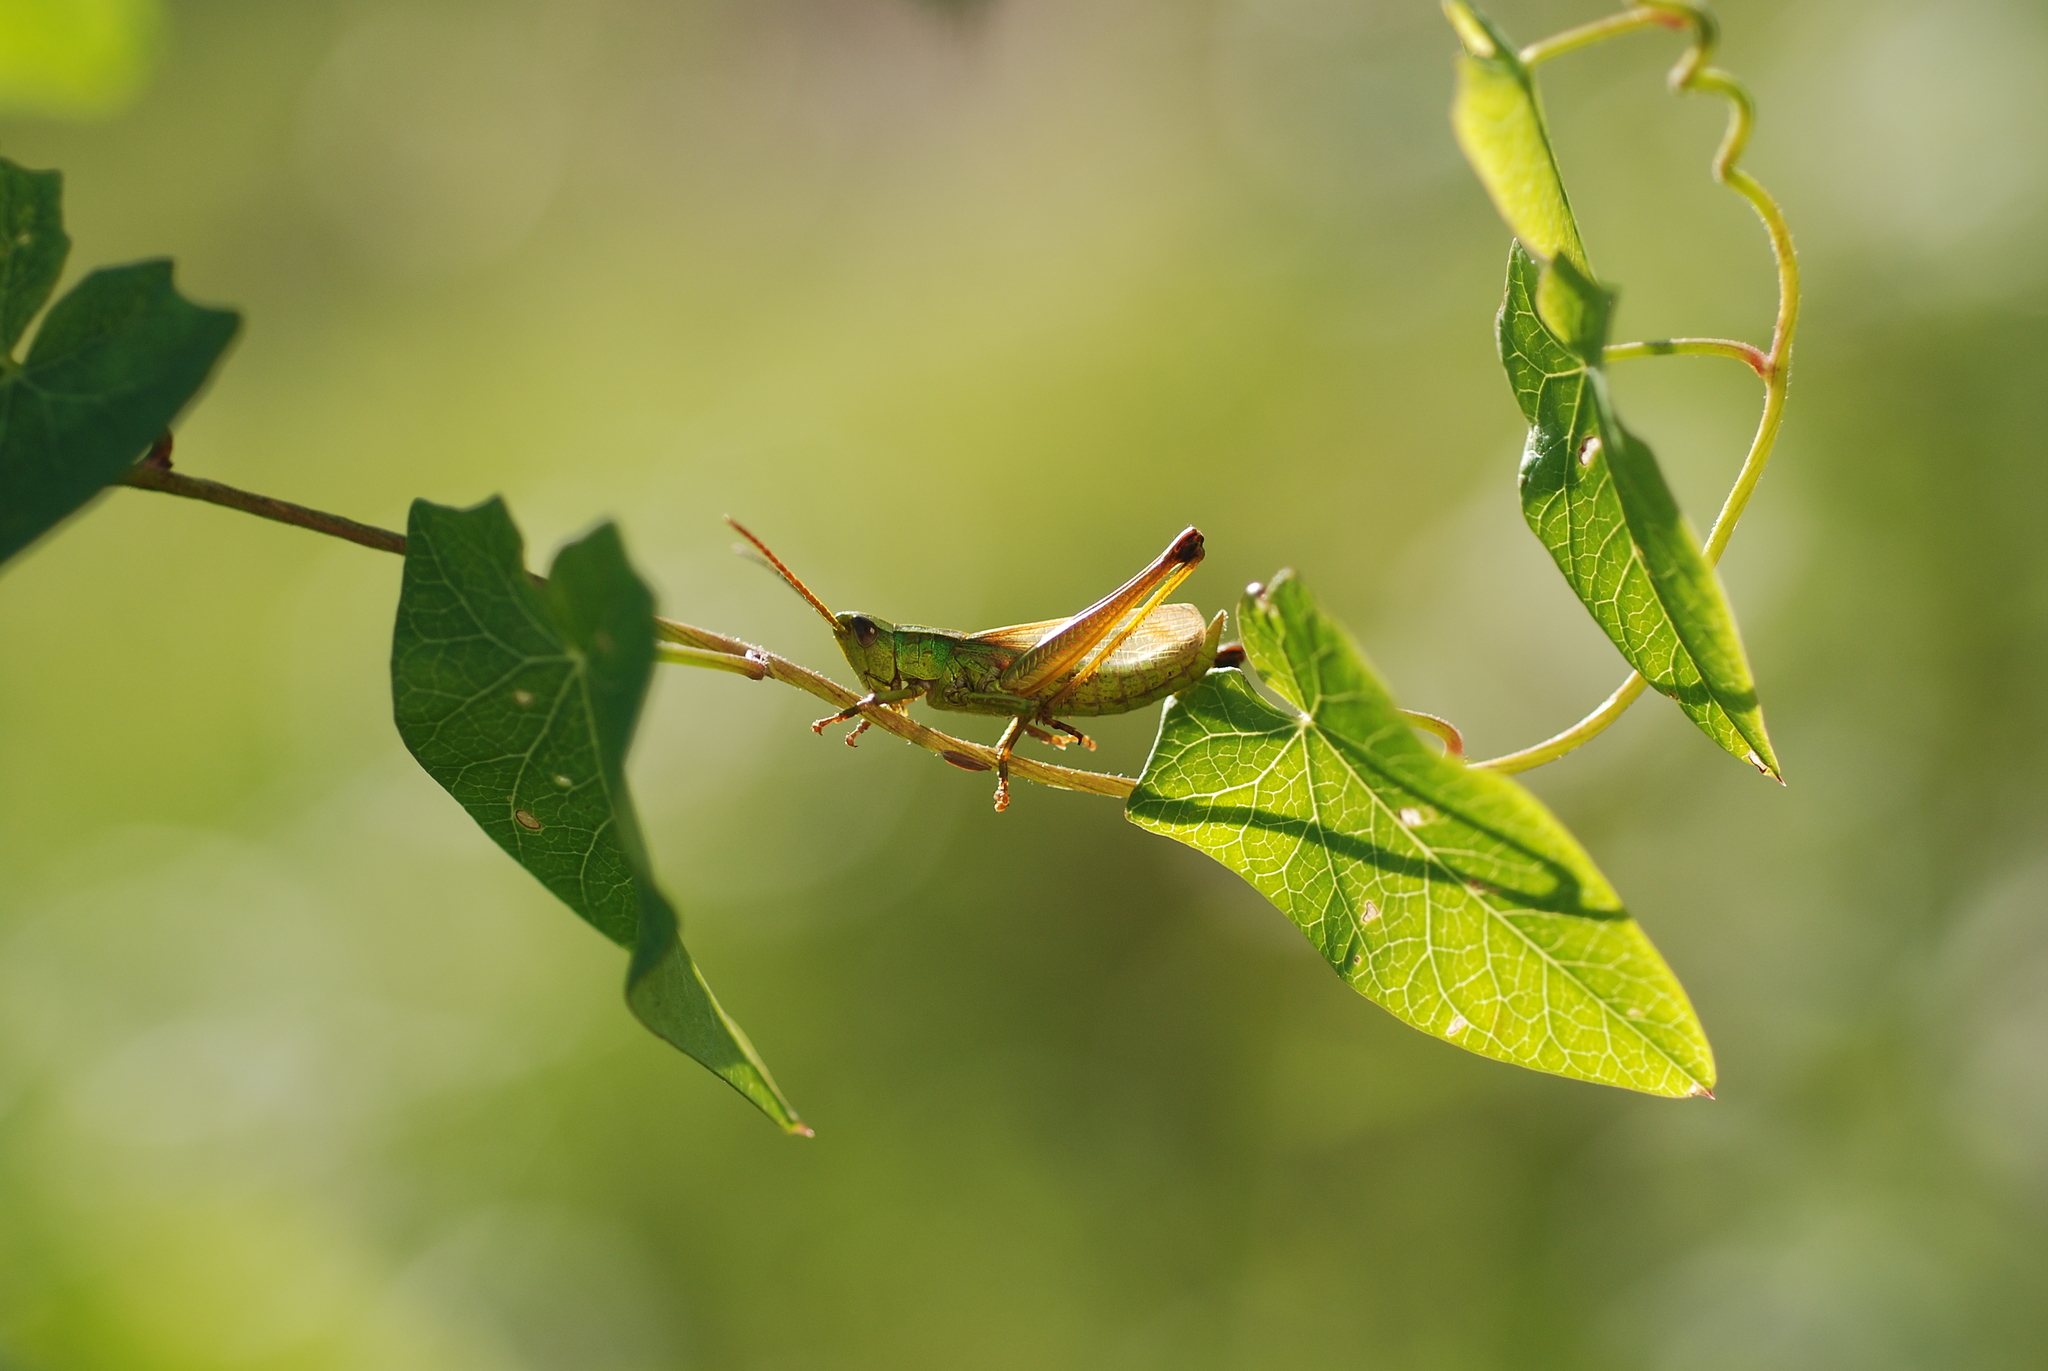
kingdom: Animalia
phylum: Arthropoda
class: Insecta
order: Orthoptera
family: Acrididae
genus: Chrysochraon
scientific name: Chrysochraon dispar
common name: Large gold grasshopper
